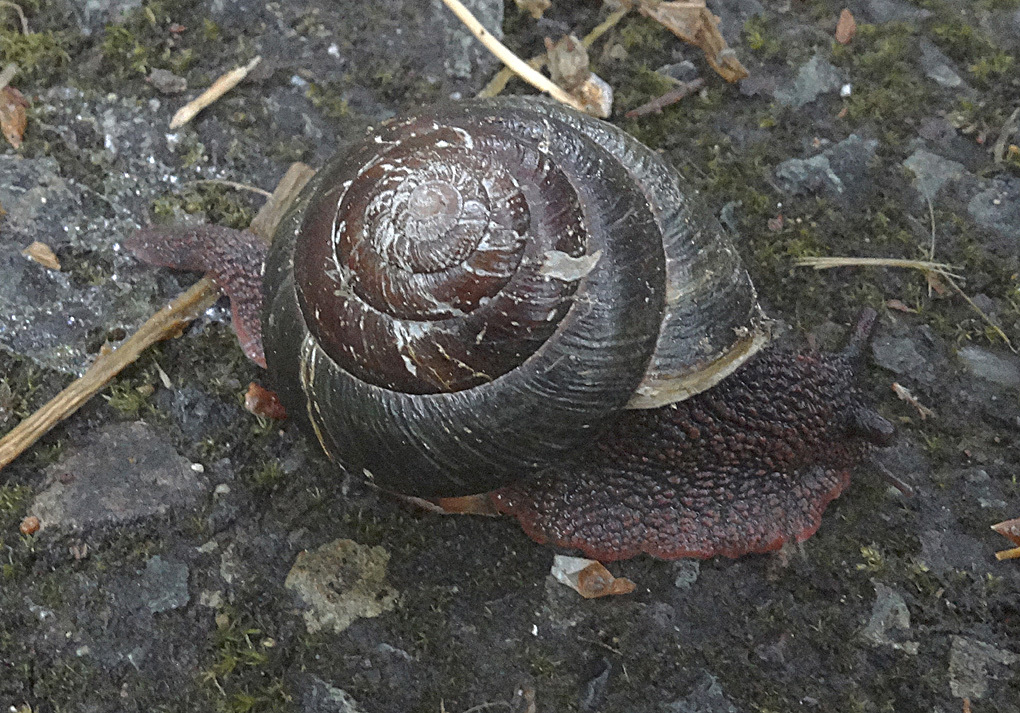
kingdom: Animalia
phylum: Mollusca
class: Gastropoda
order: Stylommatophora
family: Xanthonychidae
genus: Monadenia
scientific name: Monadenia fidelis
